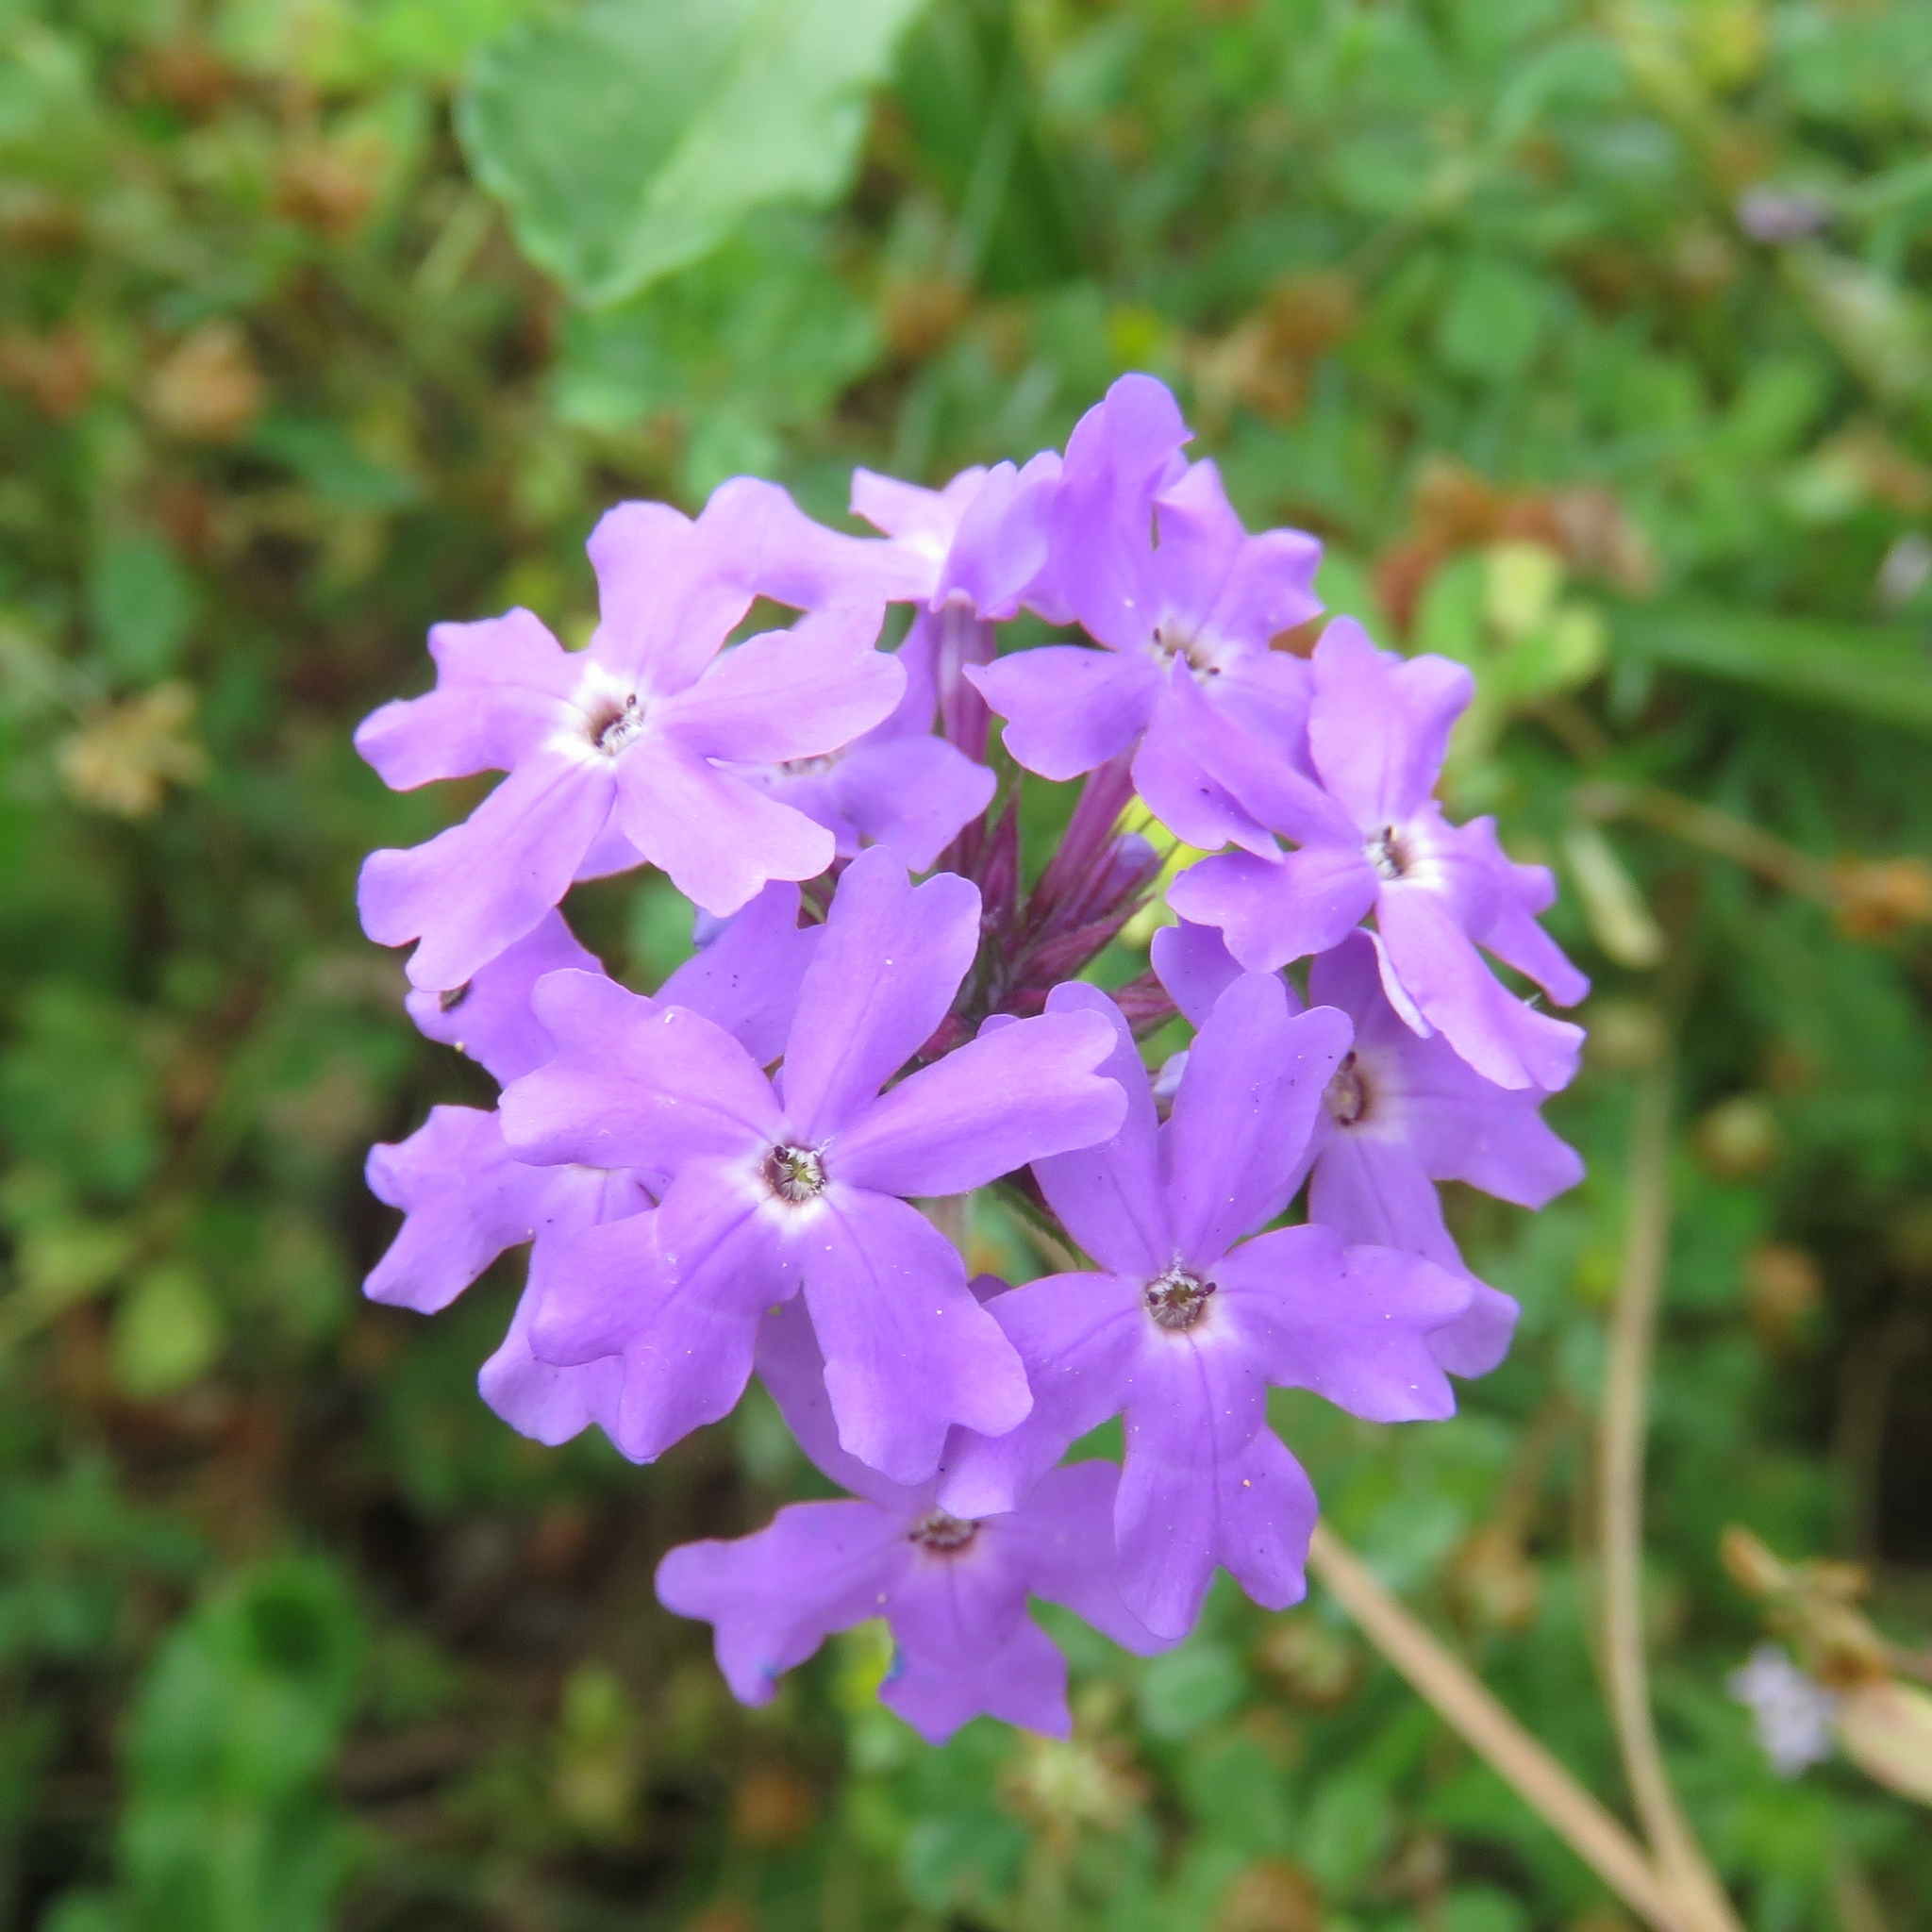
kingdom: Plantae
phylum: Tracheophyta
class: Magnoliopsida
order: Lamiales
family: Verbenaceae
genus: Verbena
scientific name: Verbena bipinnatifida
